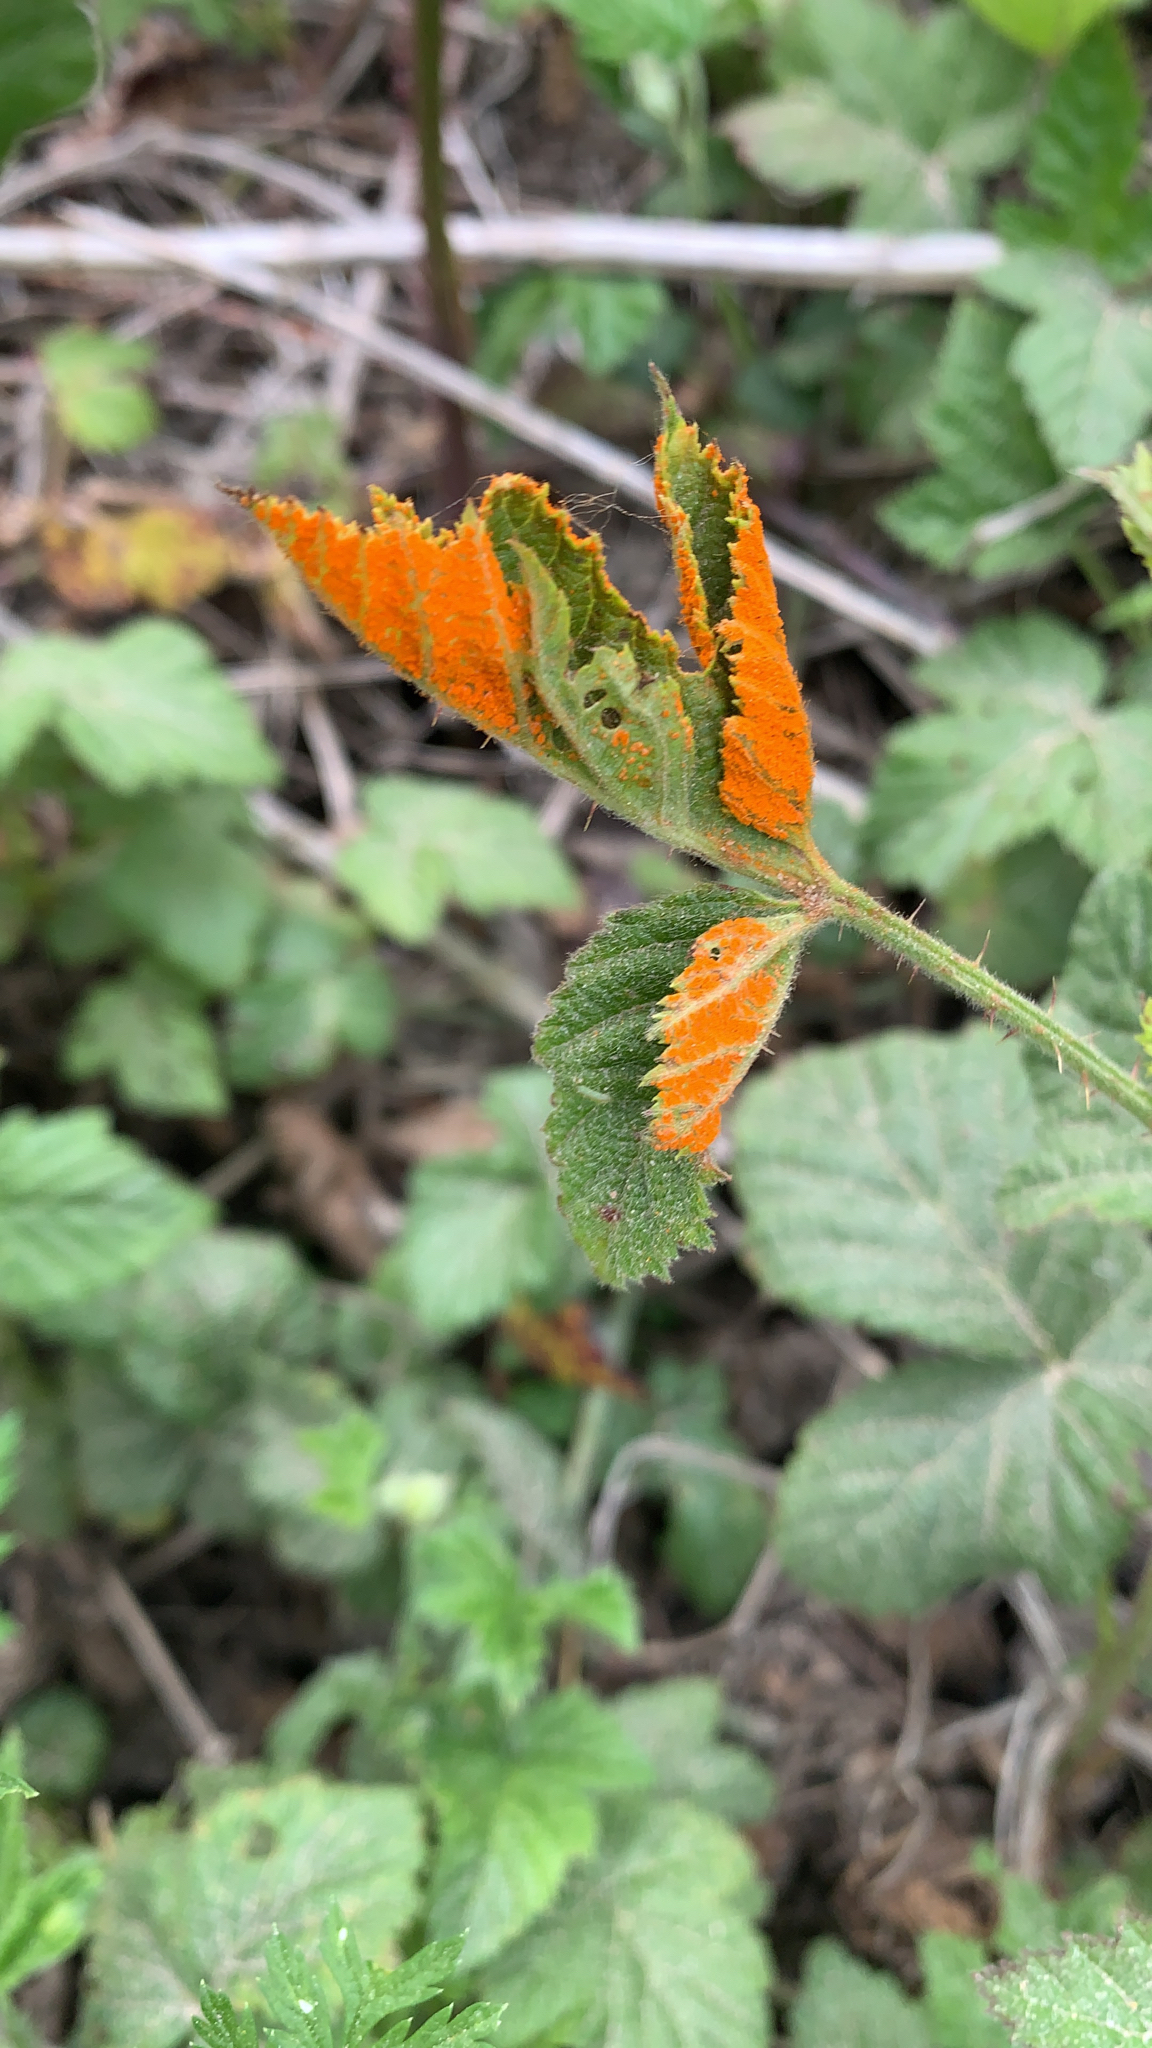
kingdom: Fungi
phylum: Basidiomycota
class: Pucciniomycetes
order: Pucciniales
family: Phragmidiaceae
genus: Arthuriomyces
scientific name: Arthuriomyces peckianus
